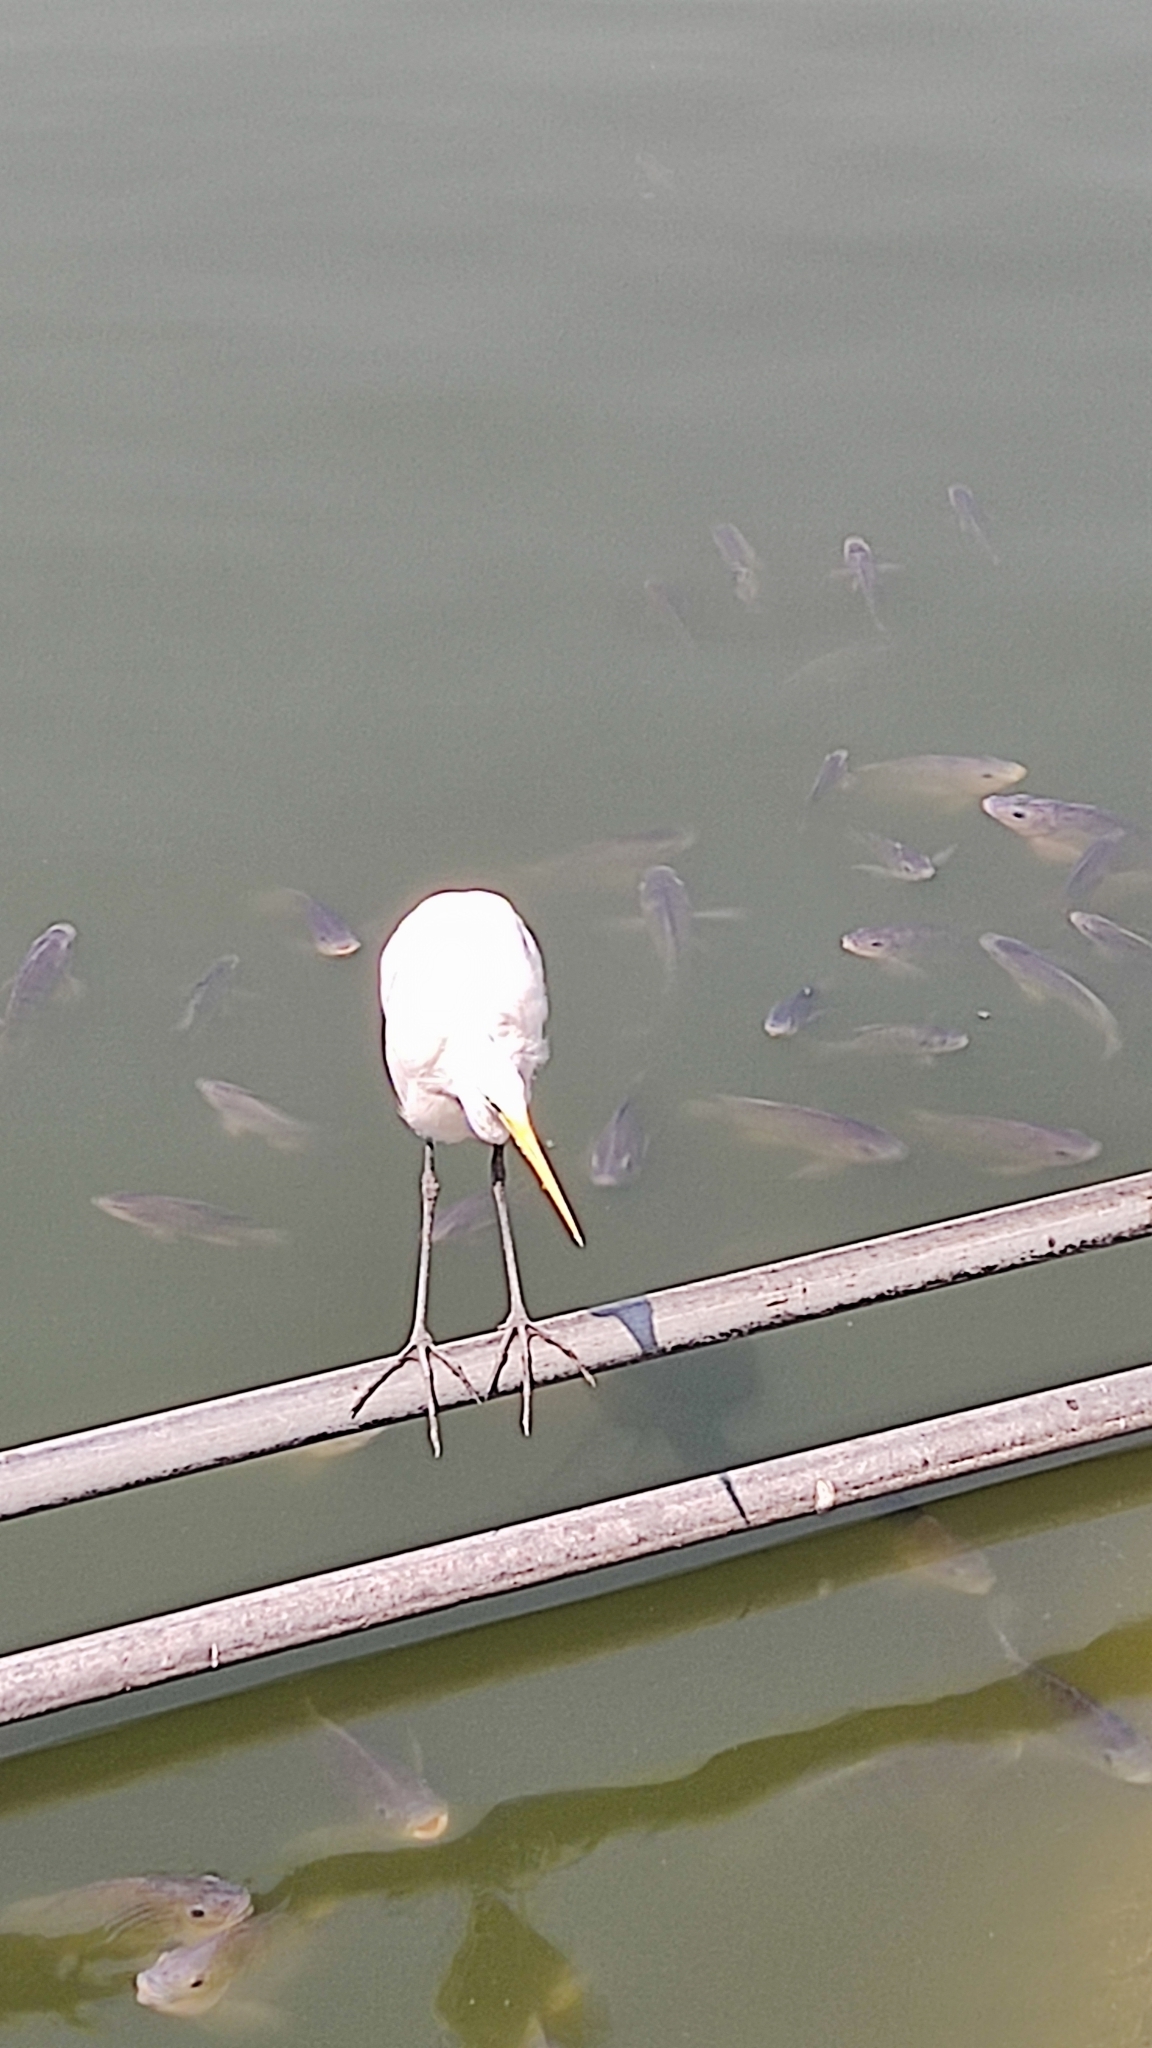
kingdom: Animalia
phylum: Chordata
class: Aves
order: Pelecaniformes
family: Ardeidae
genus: Ardea
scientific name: Ardea alba
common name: Great egret
